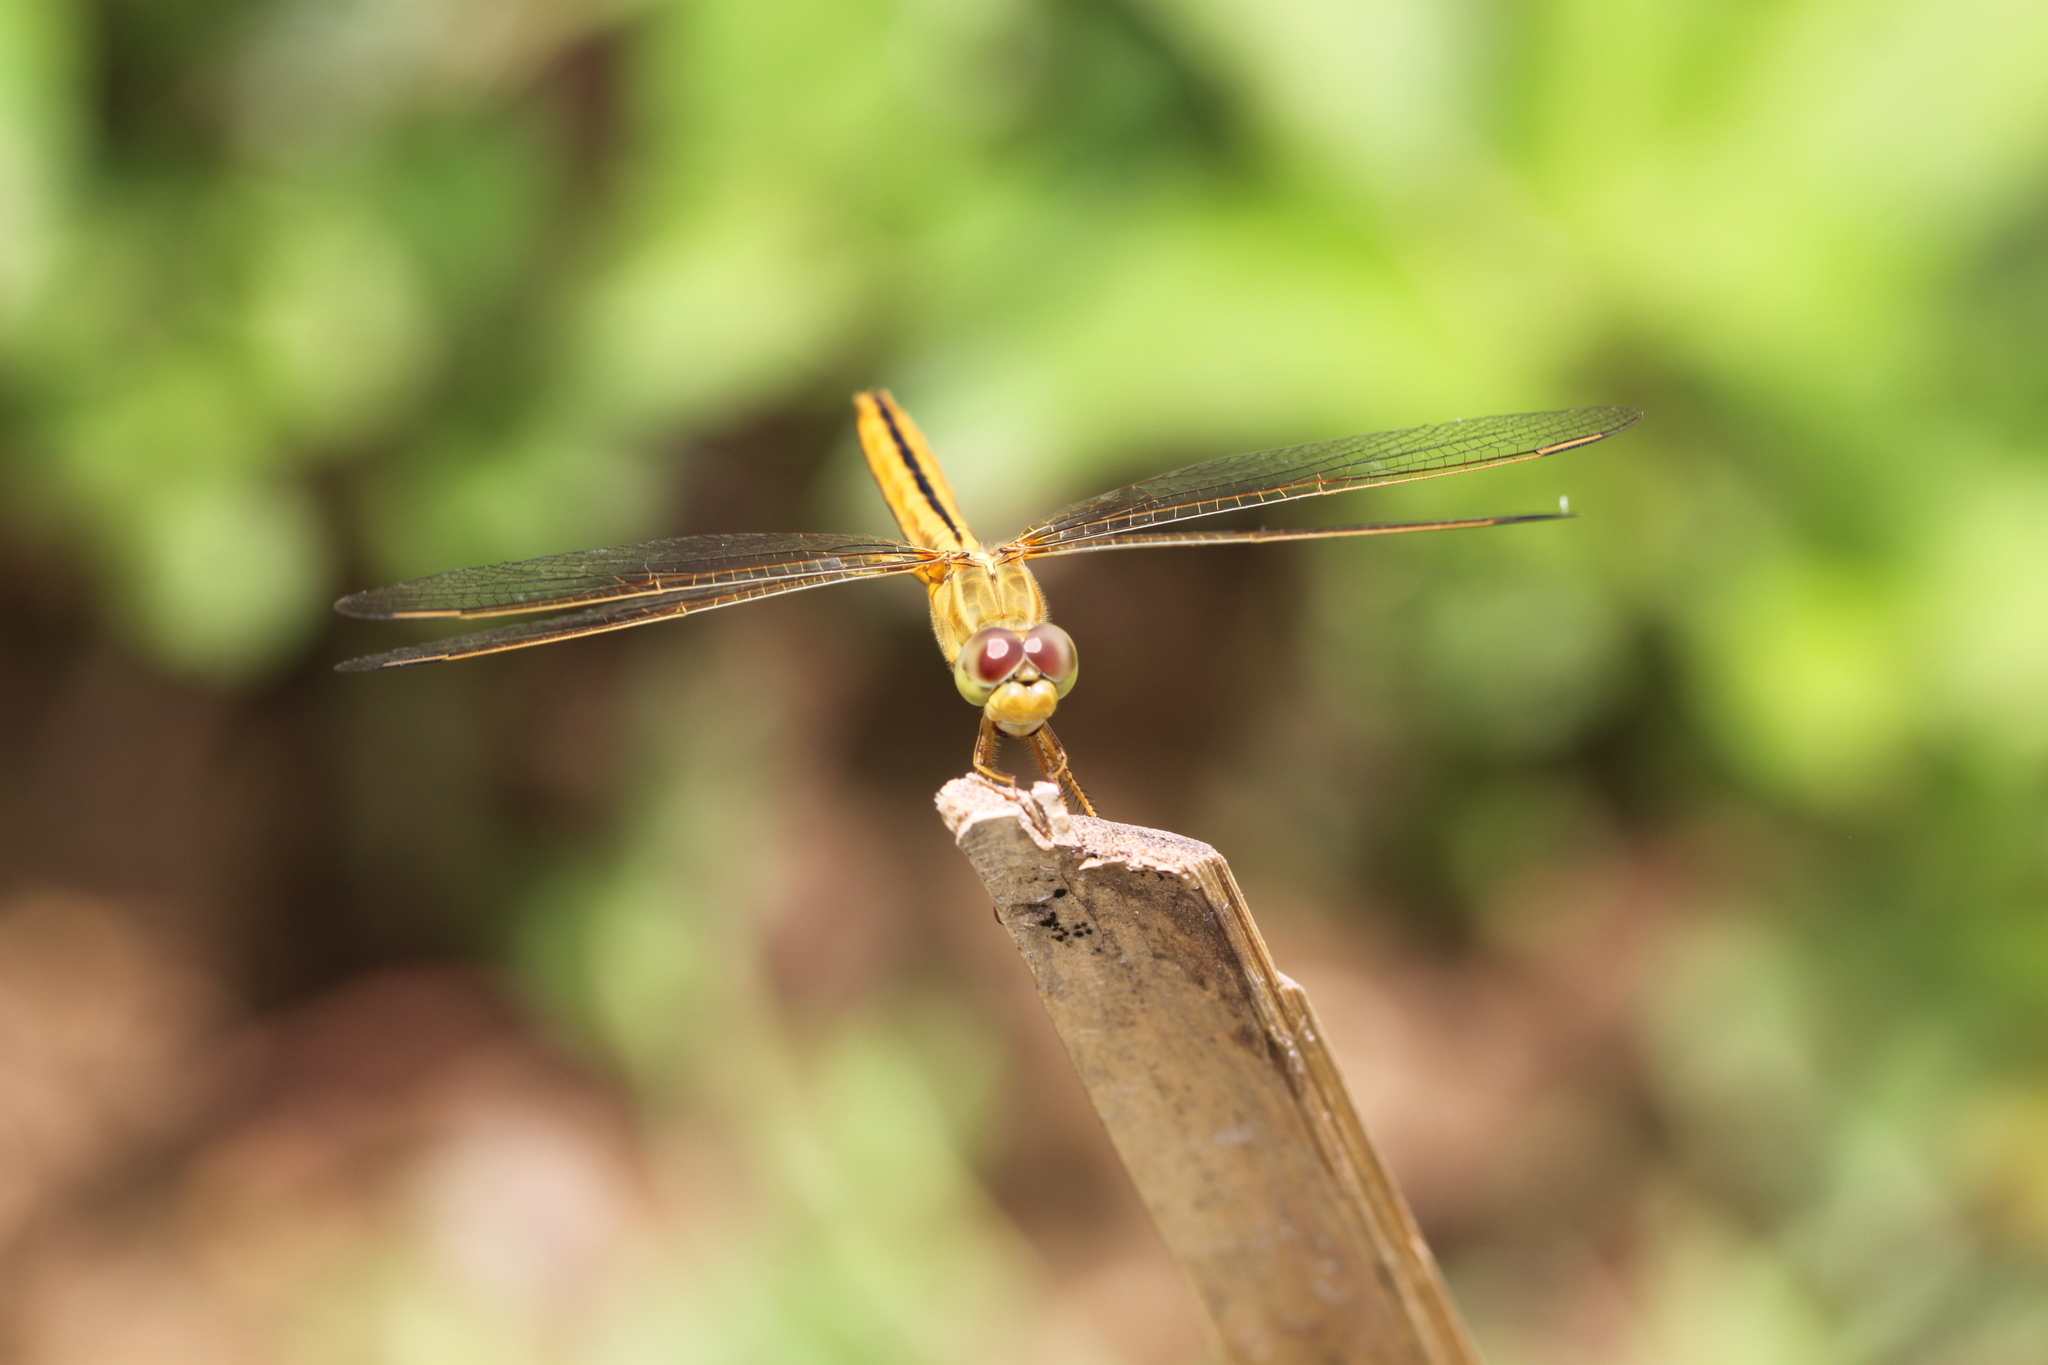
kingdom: Animalia
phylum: Arthropoda
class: Insecta
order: Odonata
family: Libellulidae
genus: Crocothemis
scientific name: Crocothemis servilia
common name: Scarlet skimmer
